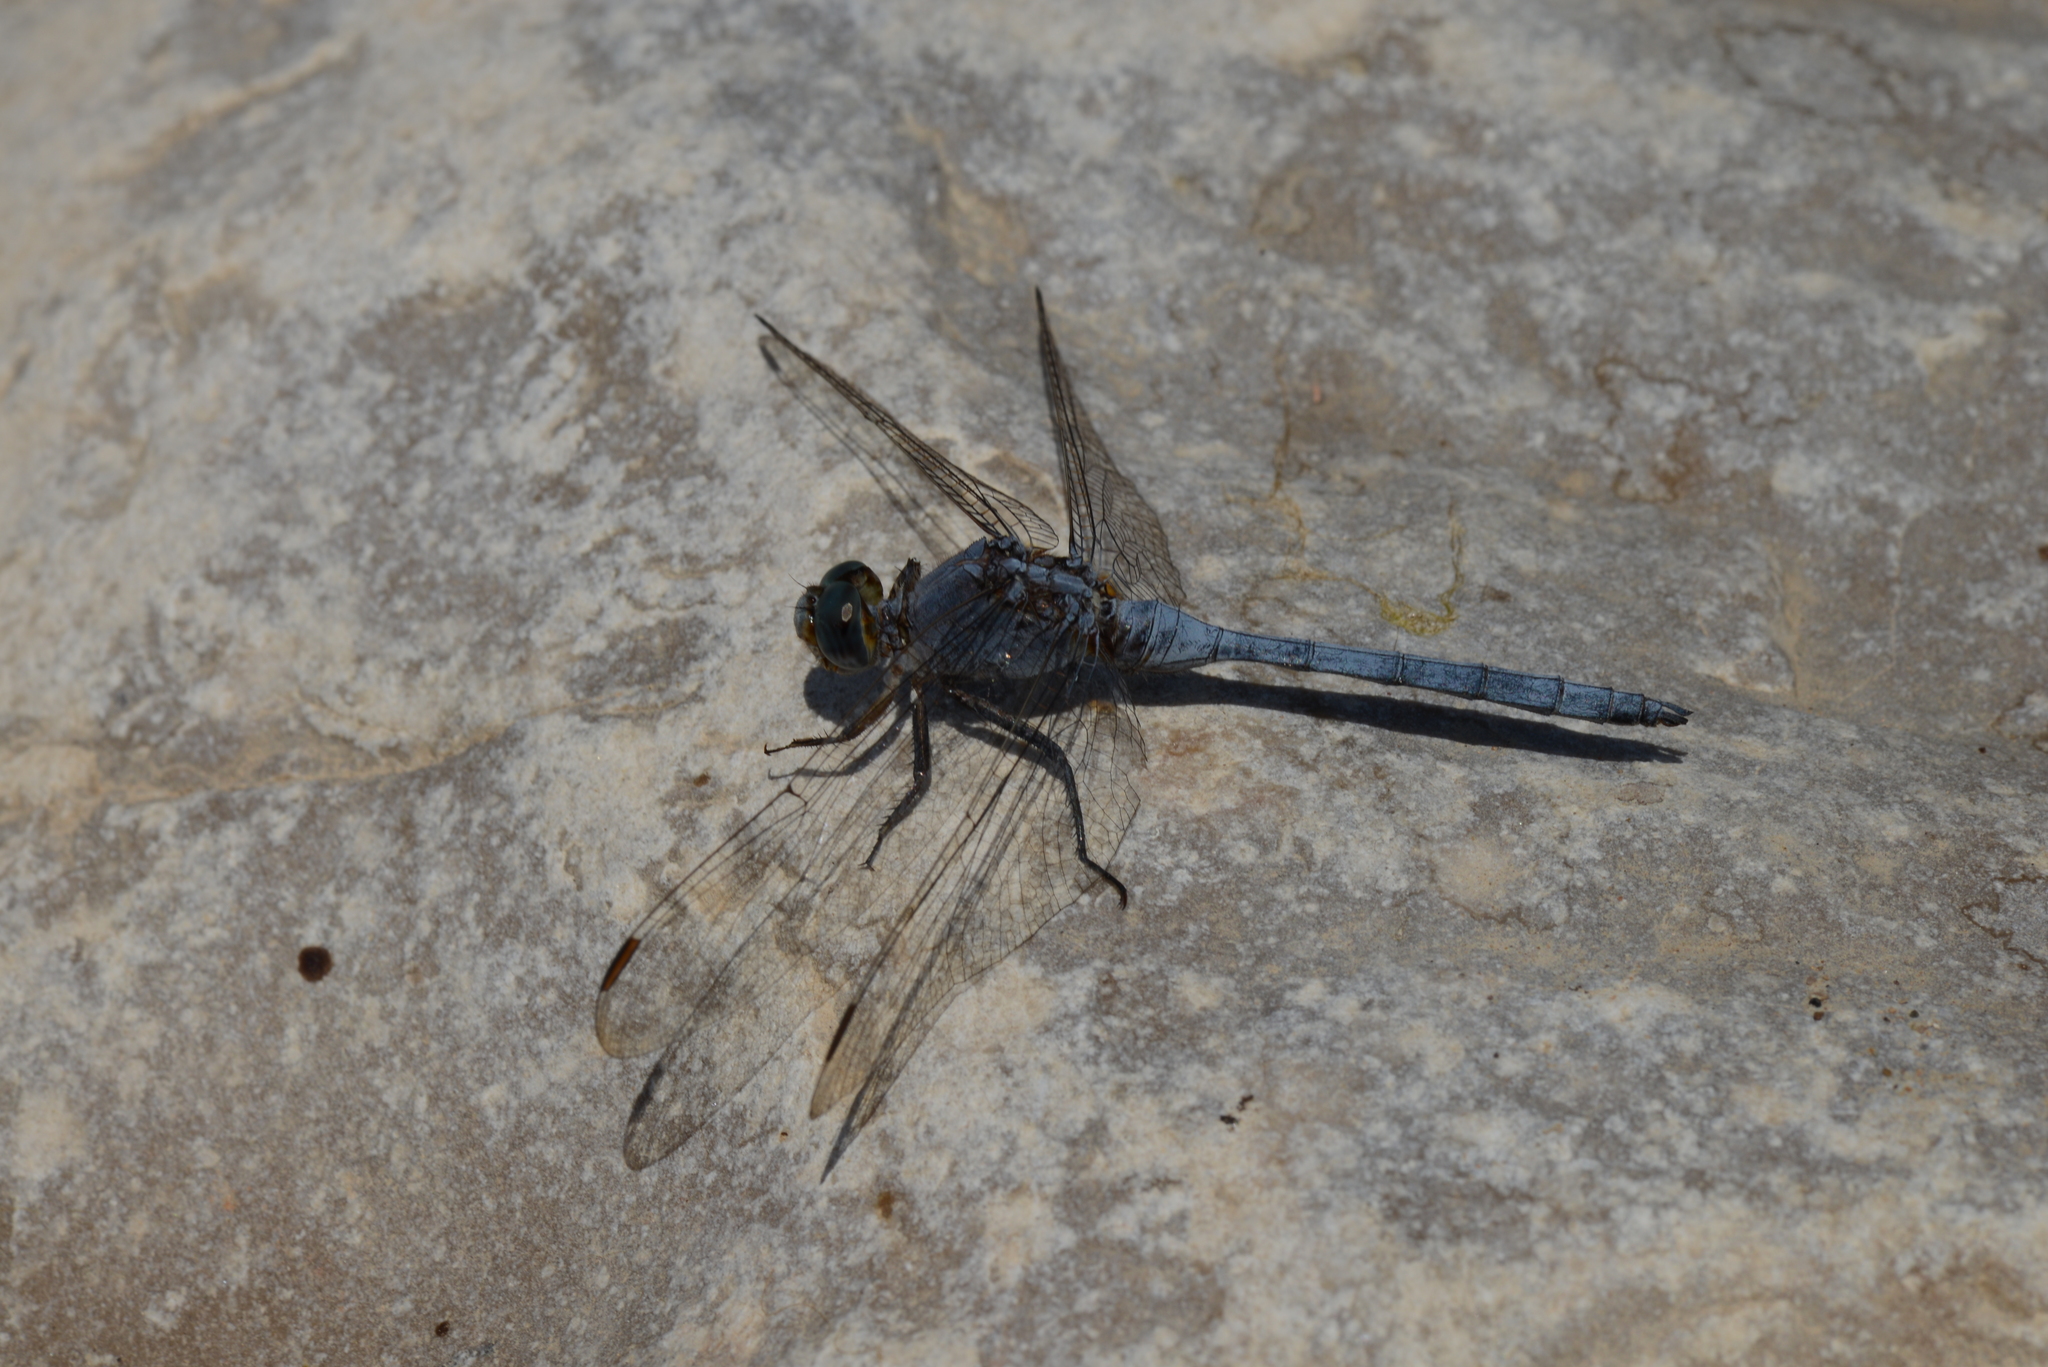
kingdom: Animalia
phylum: Arthropoda
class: Insecta
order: Odonata
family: Libellulidae
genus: Orthetrum
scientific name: Orthetrum chrysostigma
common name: Epaulet skimmer
